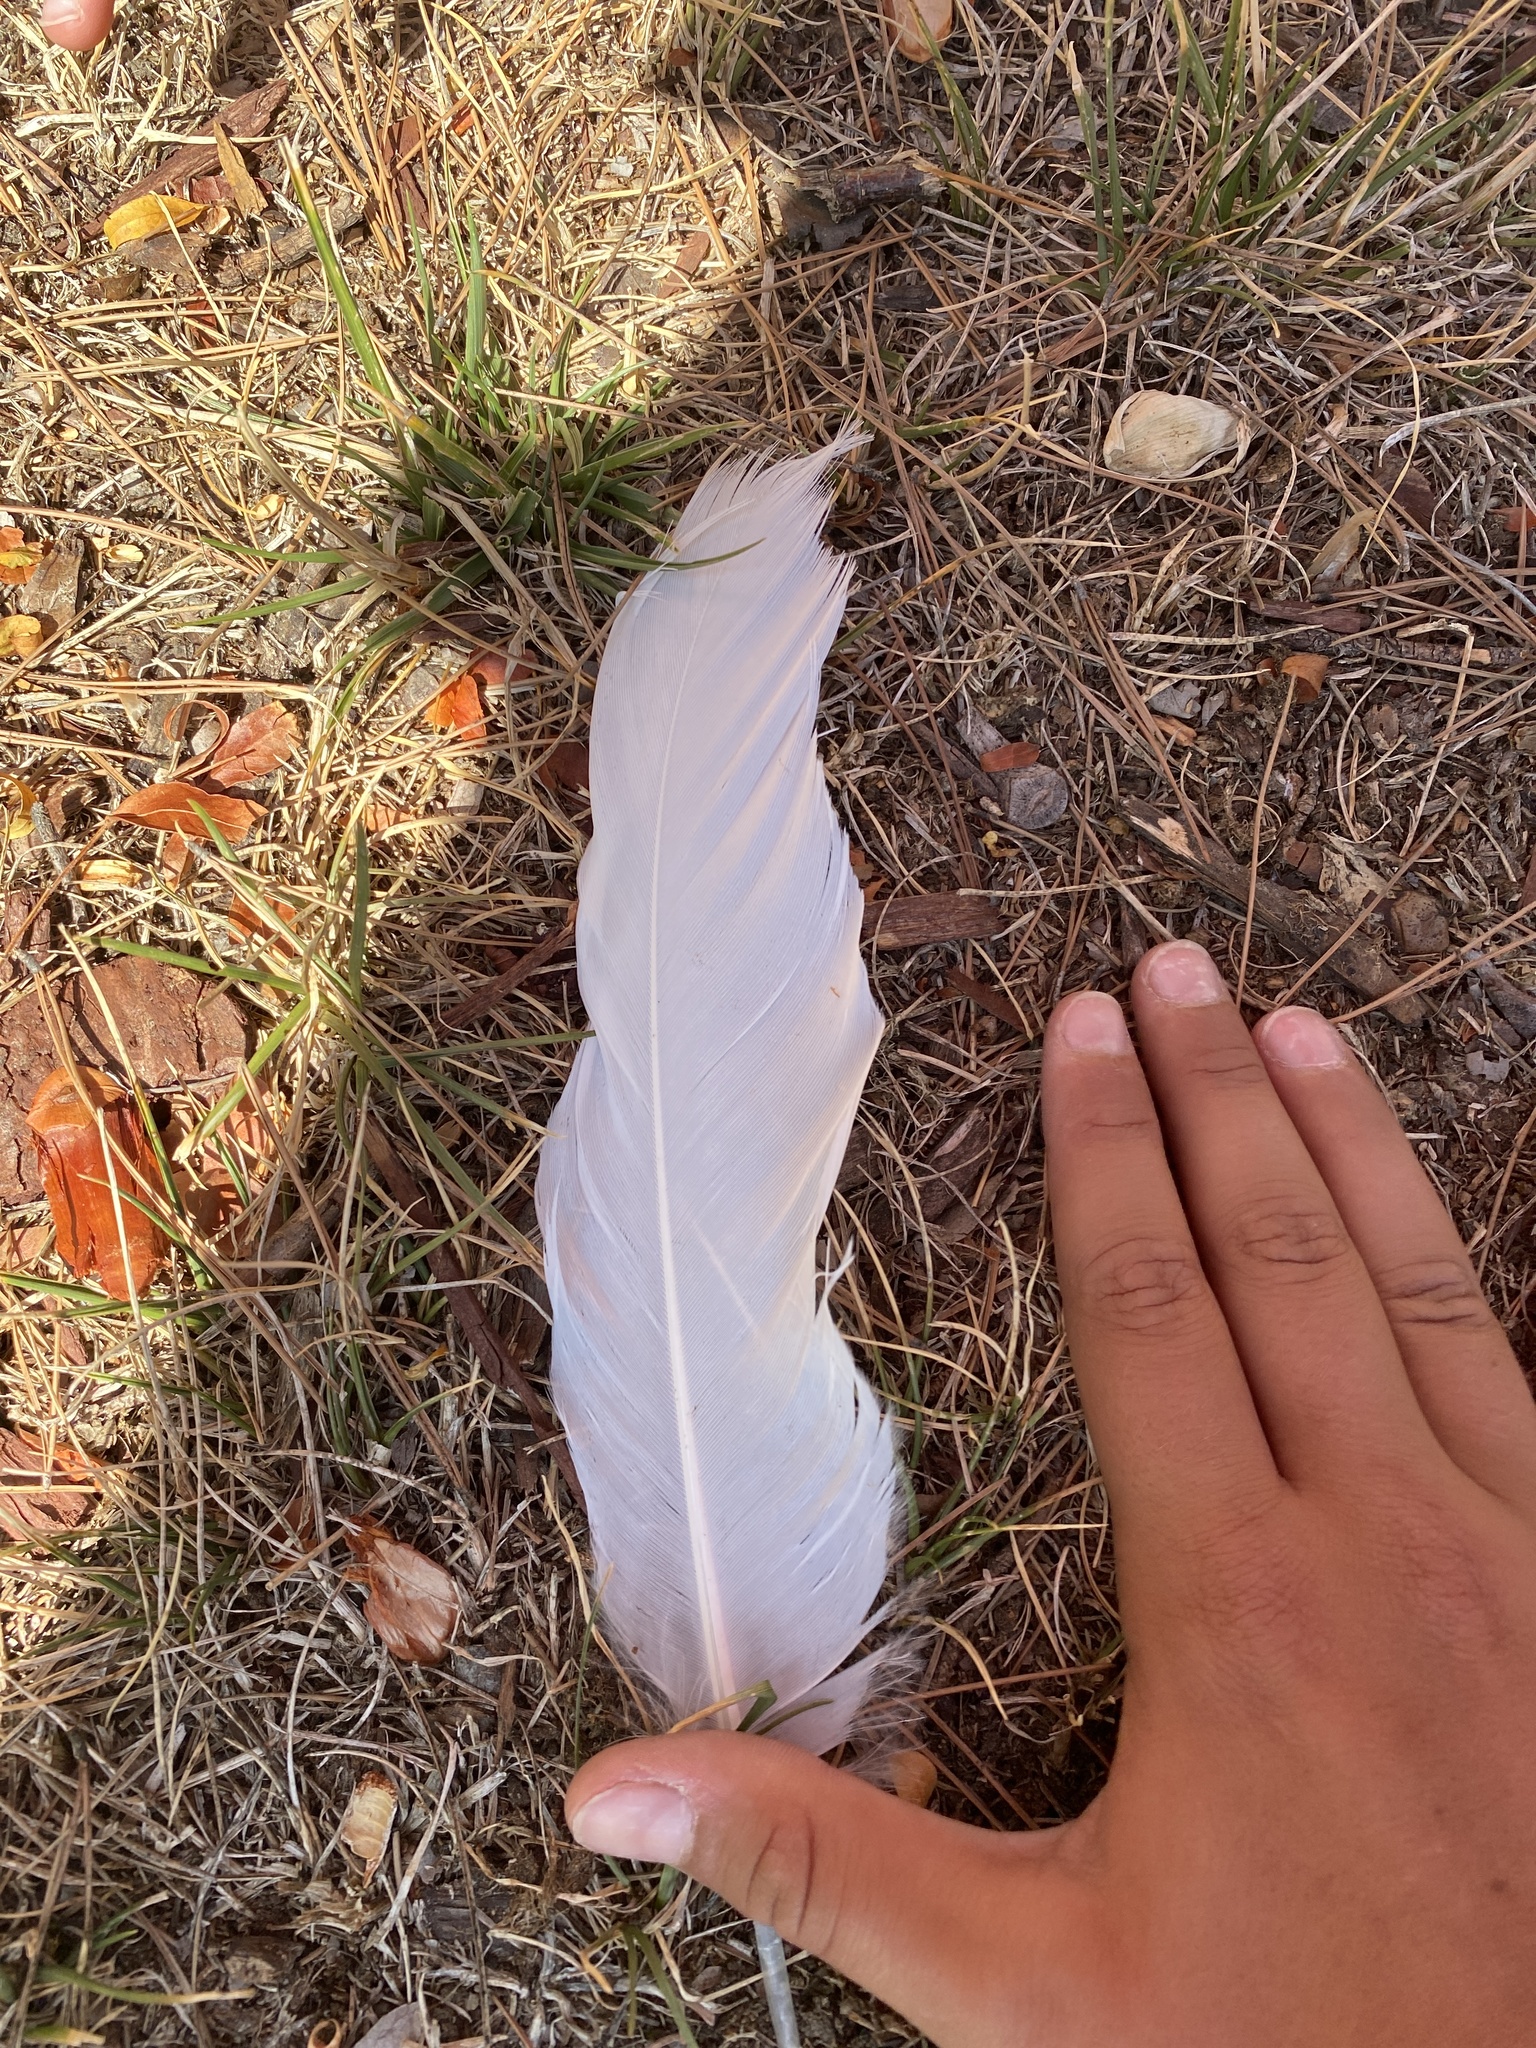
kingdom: Animalia
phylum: Chordata
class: Aves
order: Pelecaniformes
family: Ardeidae
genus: Ardea
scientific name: Ardea alba
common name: Great egret
